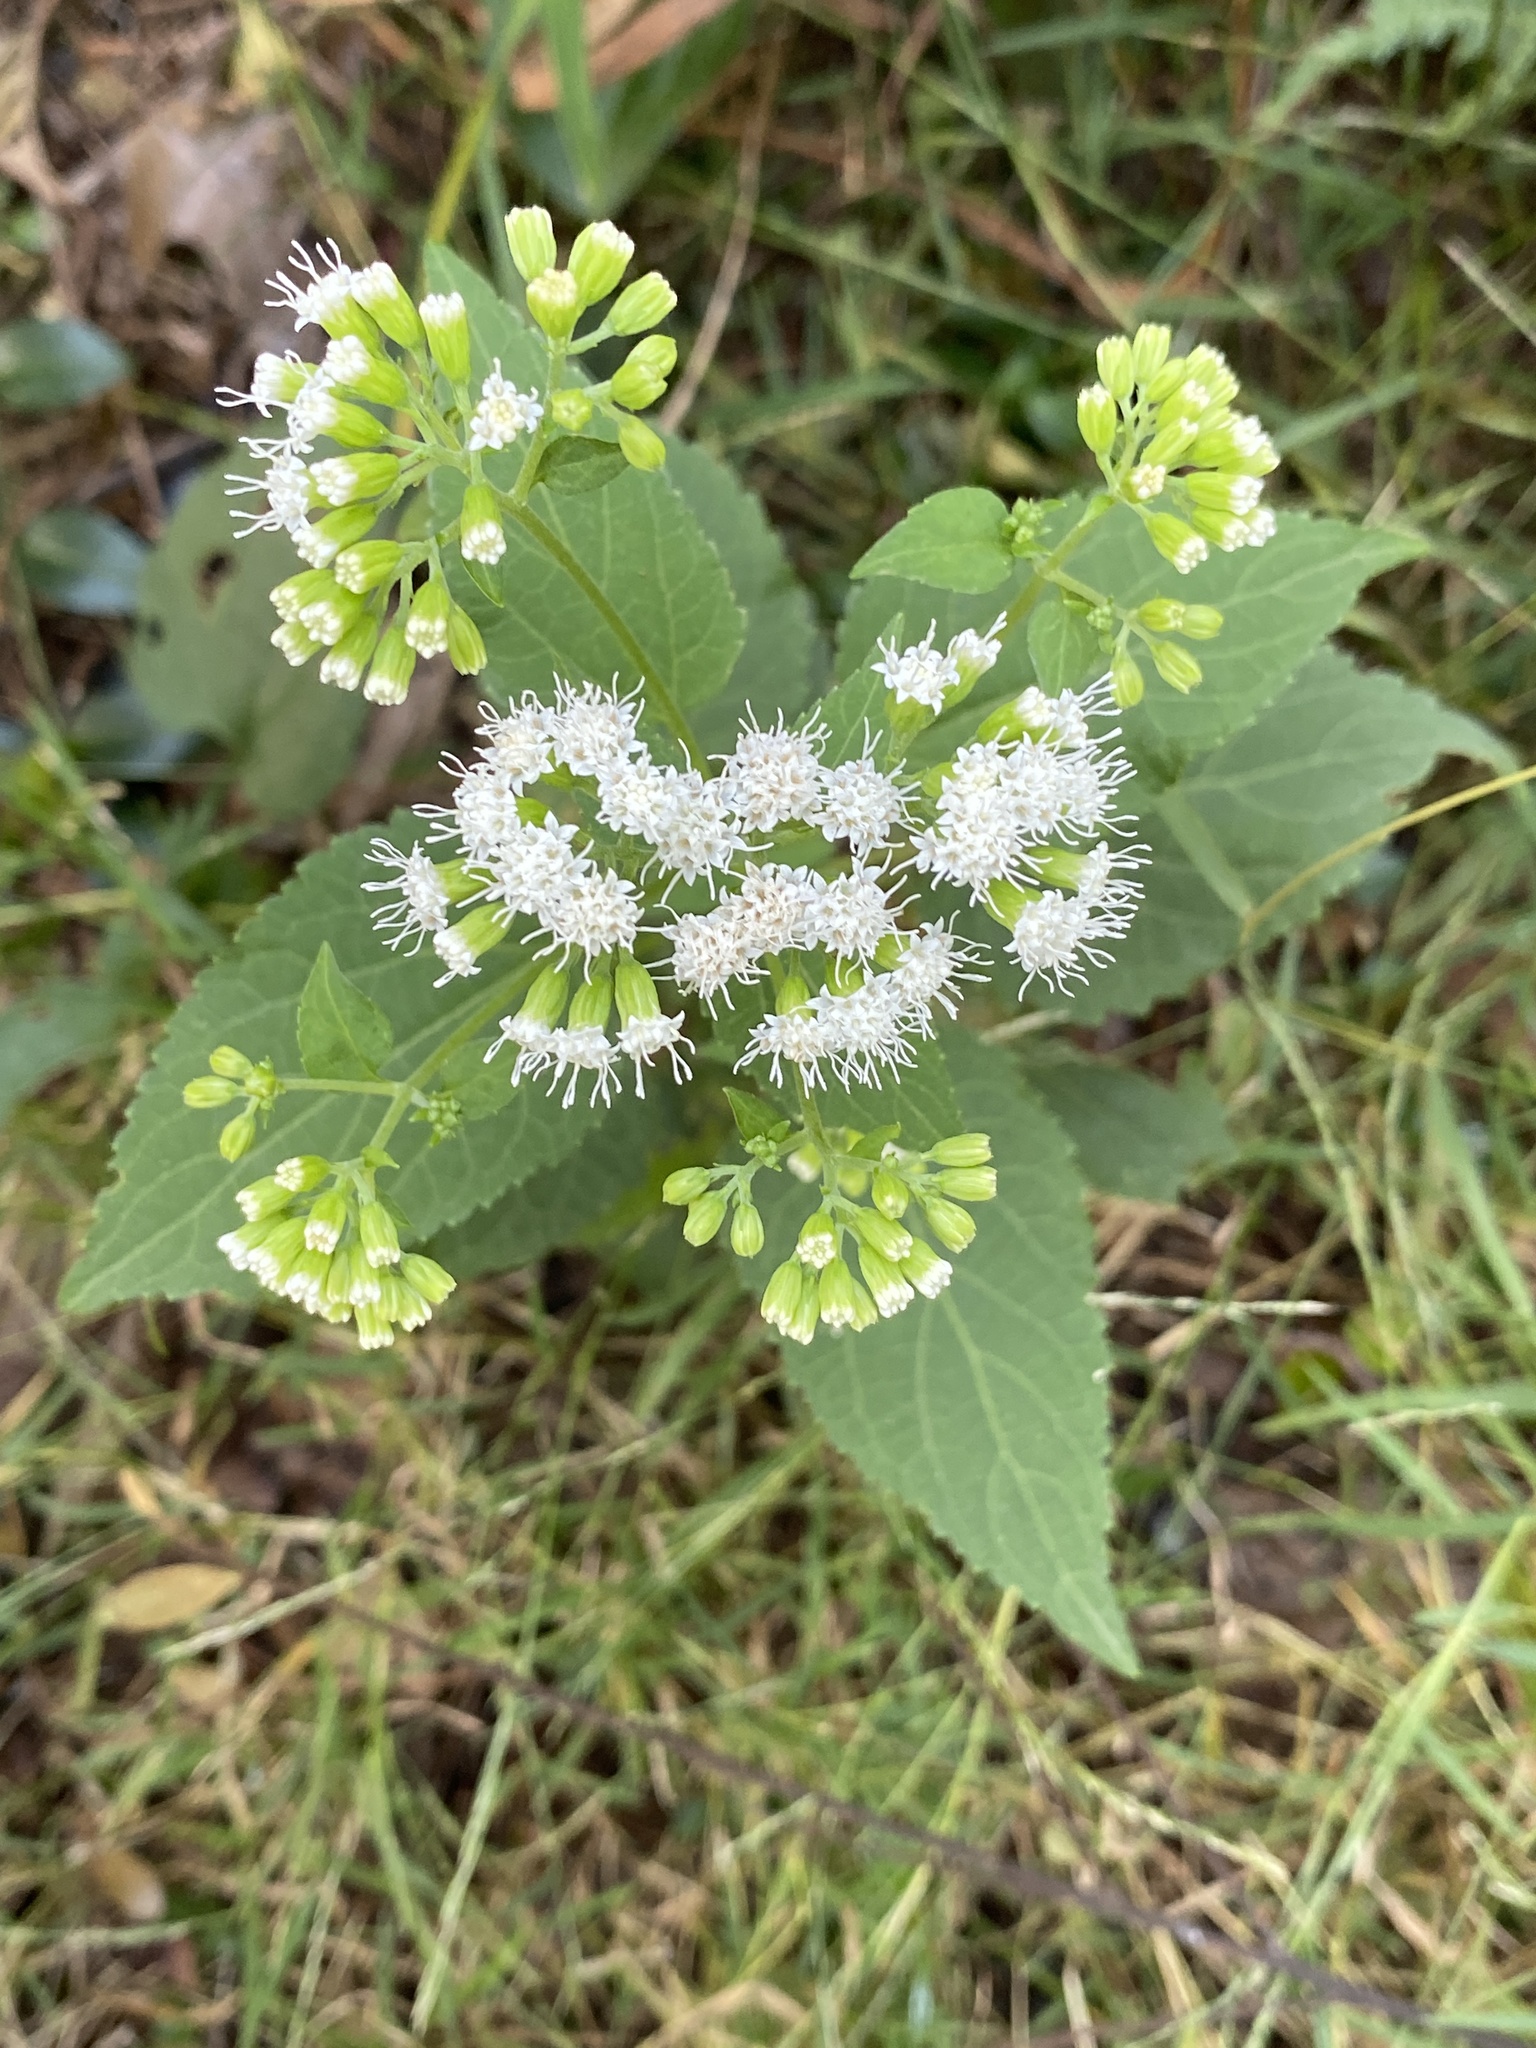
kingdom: Plantae
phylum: Tracheophyta
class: Magnoliopsida
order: Asterales
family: Asteraceae
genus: Ageratina
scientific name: Ageratina altissima
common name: White snakeroot
